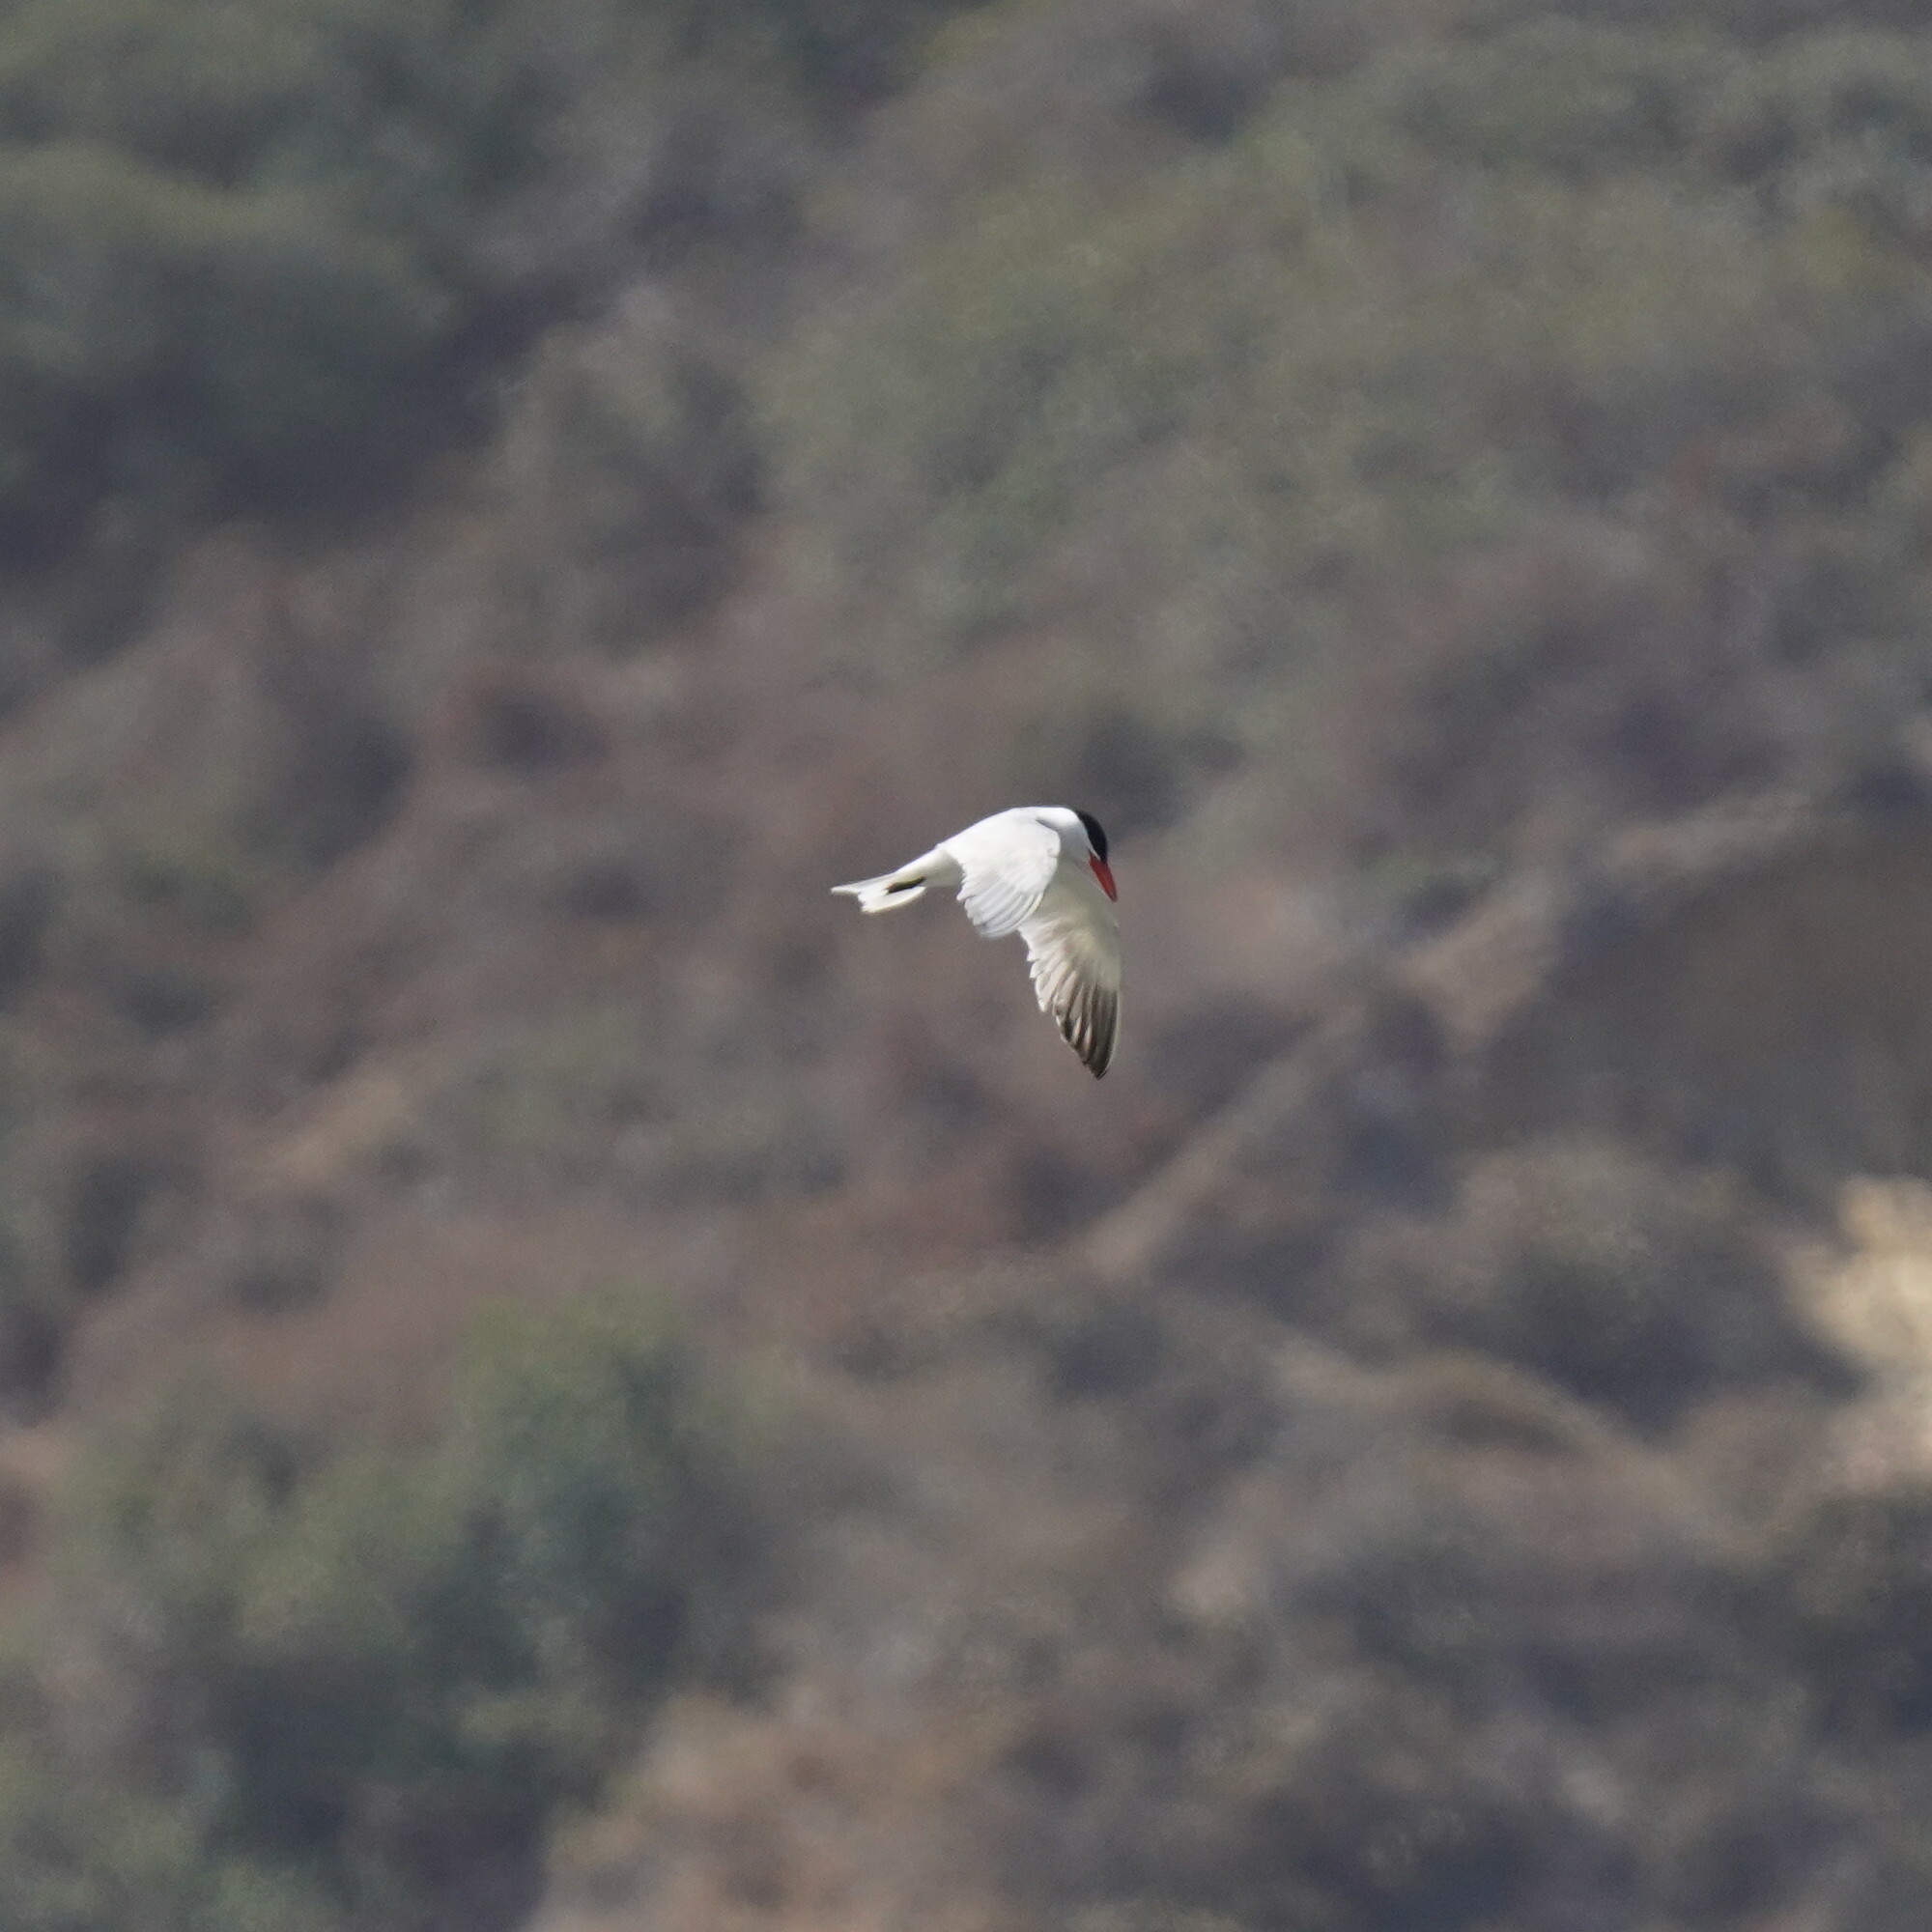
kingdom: Animalia
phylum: Chordata
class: Aves
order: Charadriiformes
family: Laridae
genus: Hydroprogne
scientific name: Hydroprogne caspia
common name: Caspian tern
